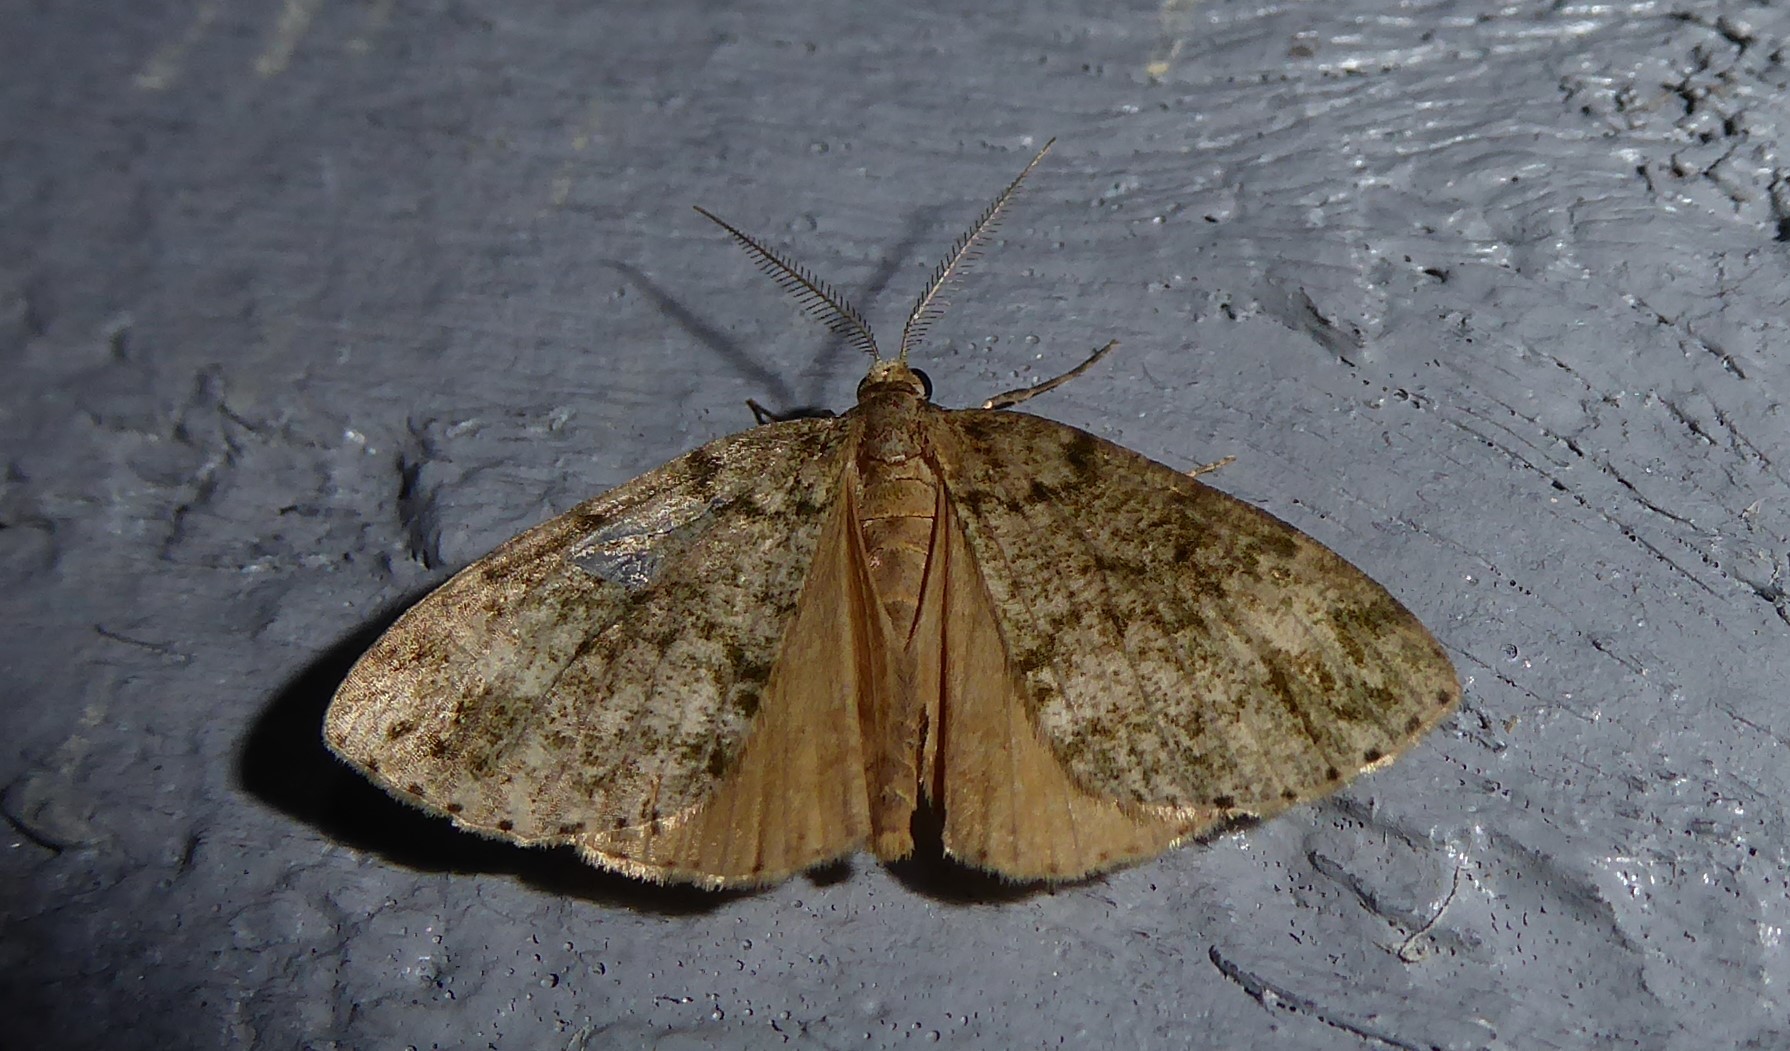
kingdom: Animalia
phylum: Arthropoda
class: Insecta
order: Lepidoptera
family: Geometridae
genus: Pseudocoremia
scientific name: Pseudocoremia indistincta
